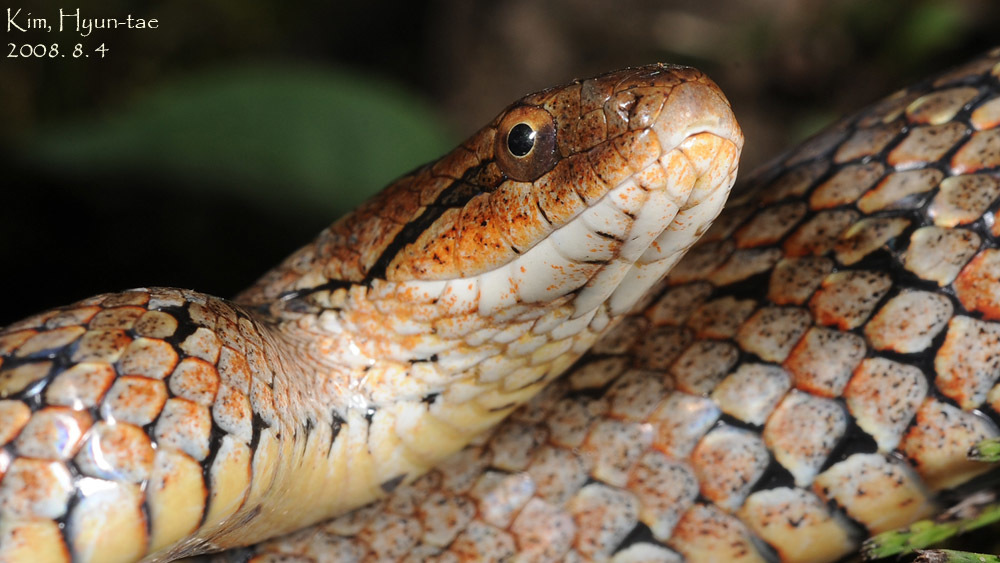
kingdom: Animalia
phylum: Chordata
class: Squamata
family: Colubridae
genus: Oocatochus
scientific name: Oocatochus rufodorsatus
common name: Frog-eating rat snake
